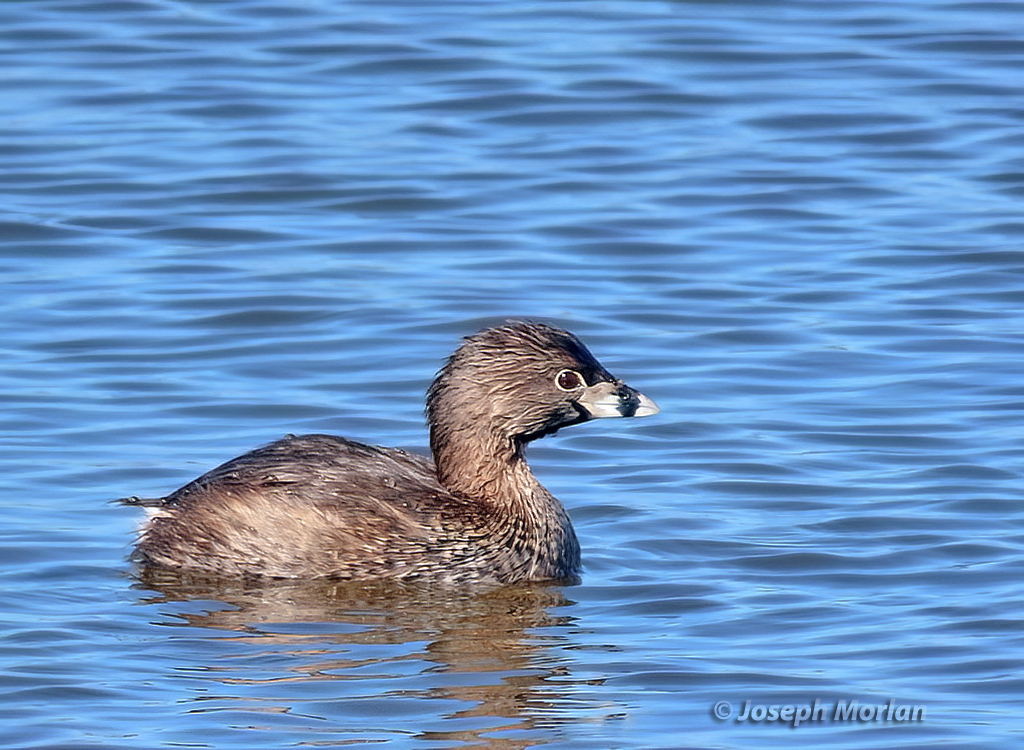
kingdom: Animalia
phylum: Chordata
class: Aves
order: Podicipediformes
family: Podicipedidae
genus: Podilymbus
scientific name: Podilymbus podiceps
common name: Pied-billed grebe
